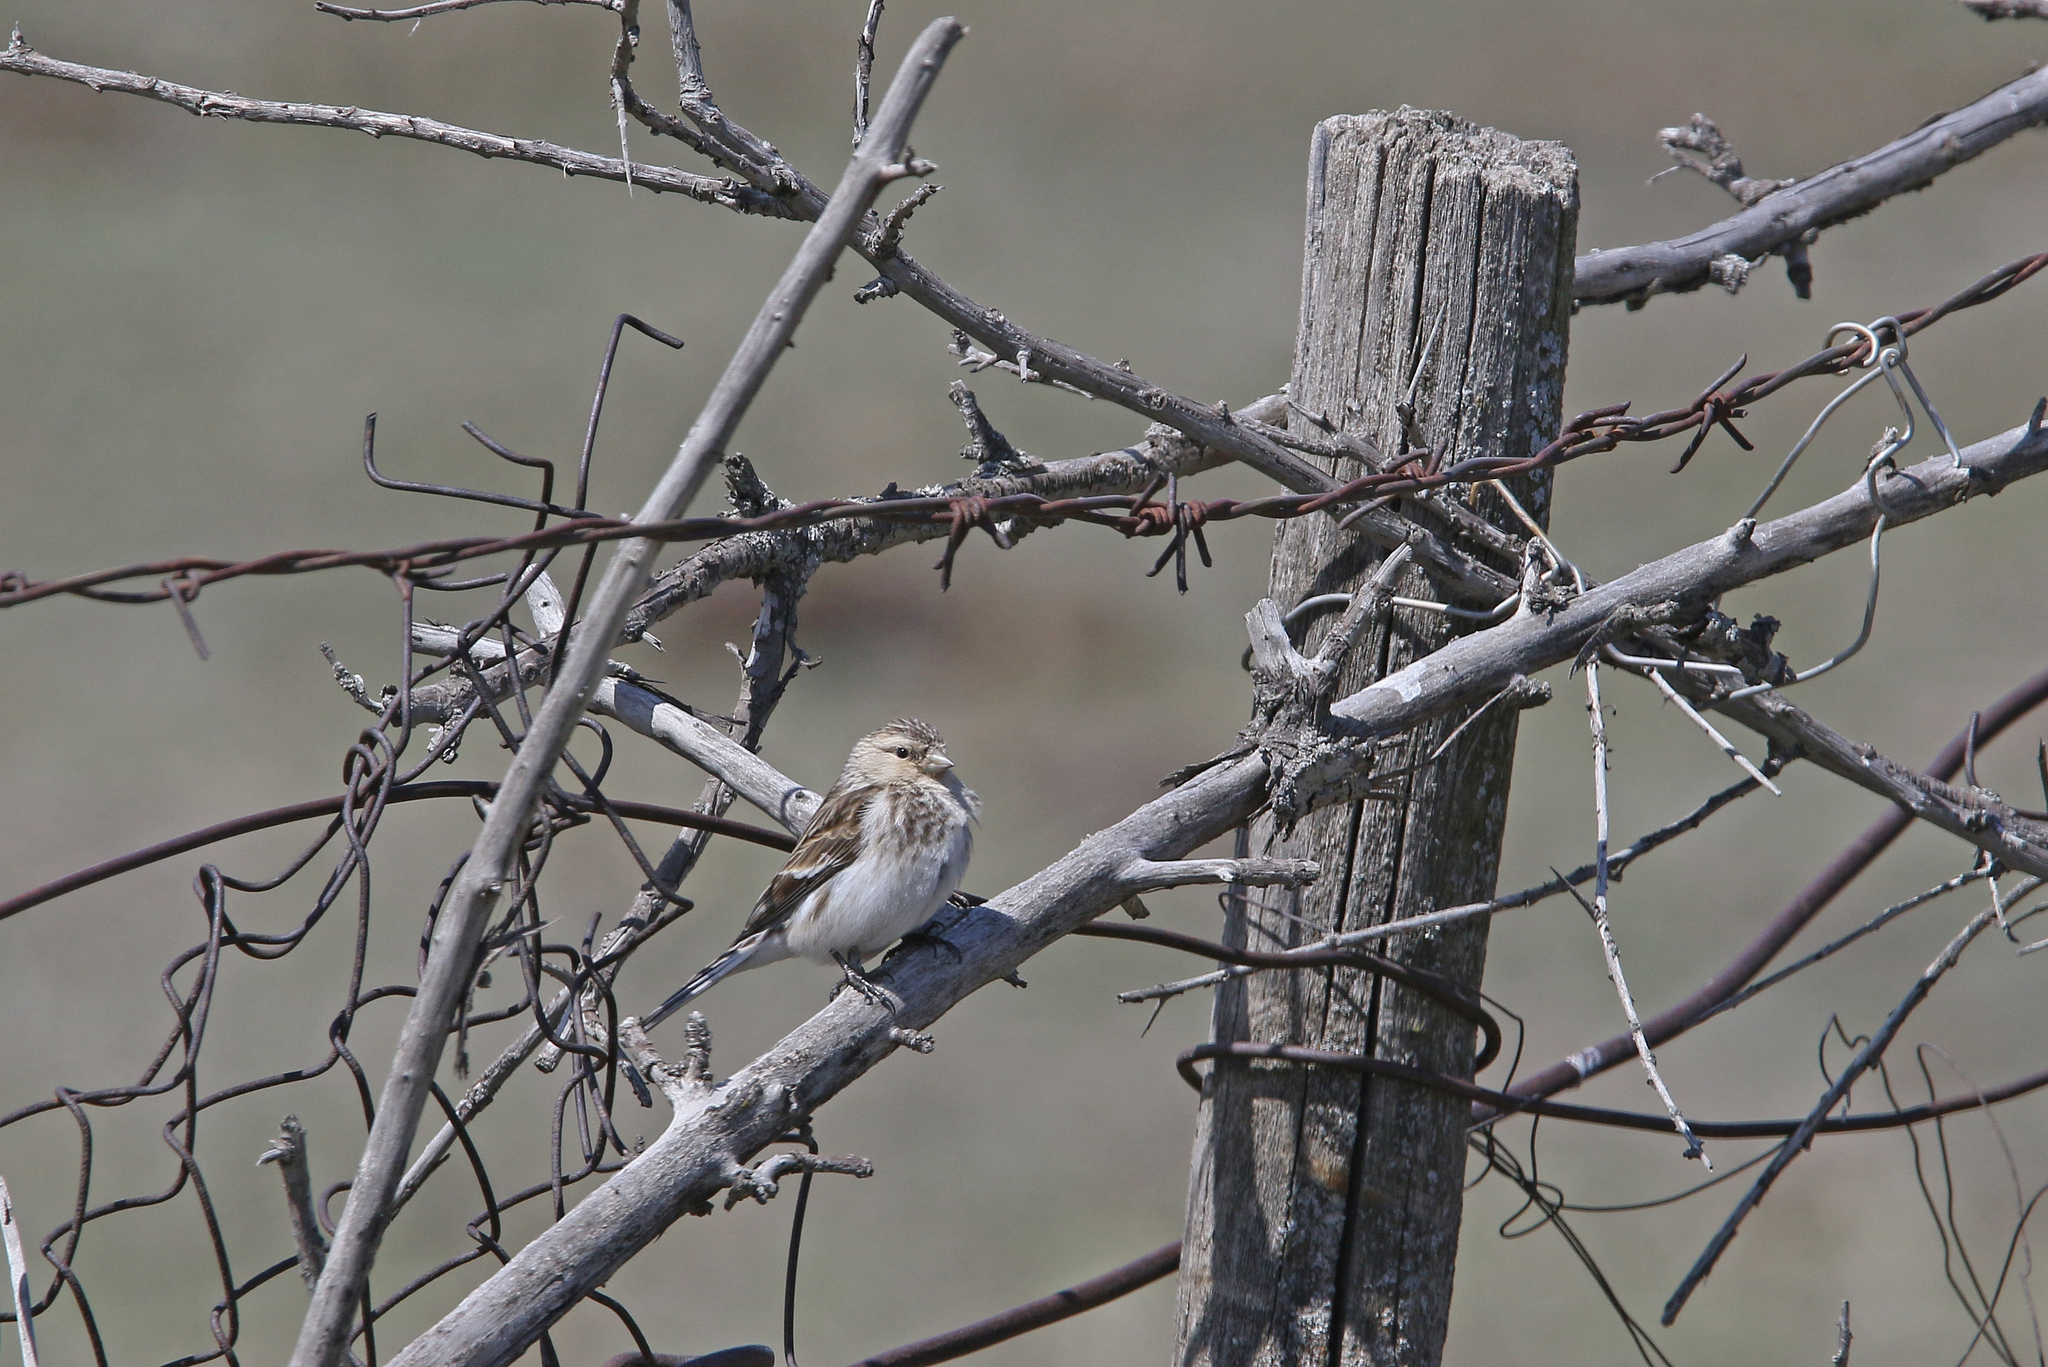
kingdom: Animalia
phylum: Chordata
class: Aves
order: Passeriformes
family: Fringillidae
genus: Linaria
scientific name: Linaria flavirostris
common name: Twite
